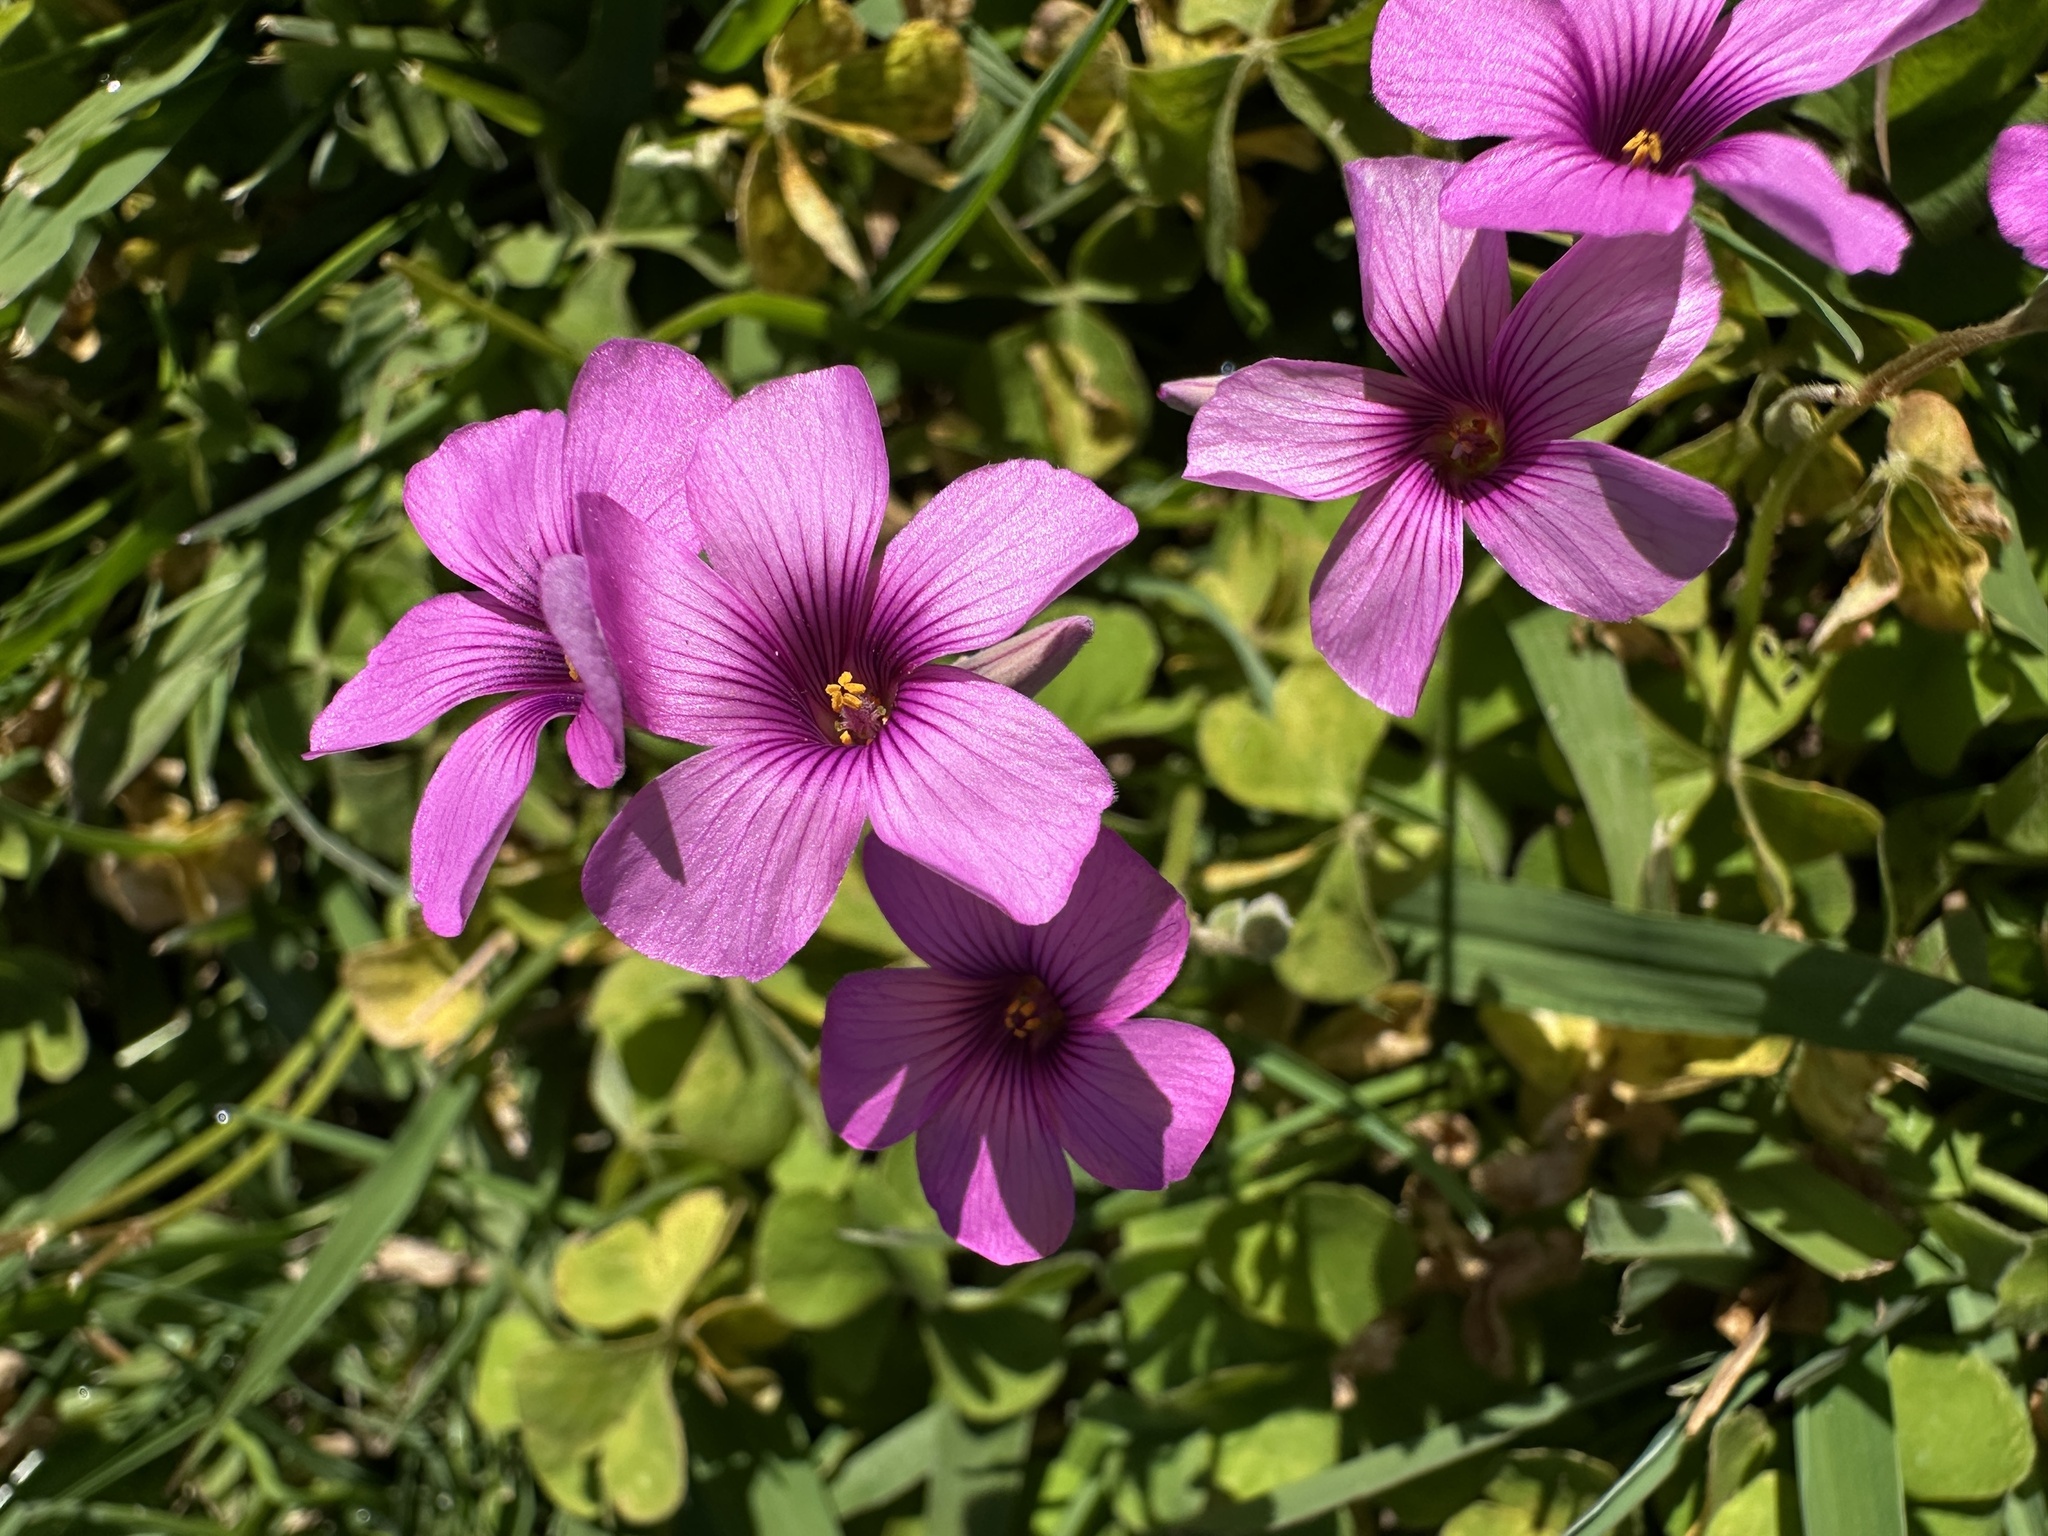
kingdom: Plantae
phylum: Tracheophyta
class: Magnoliopsida
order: Oxalidales
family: Oxalidaceae
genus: Oxalis
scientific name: Oxalis articulata
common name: Pink-sorrel
